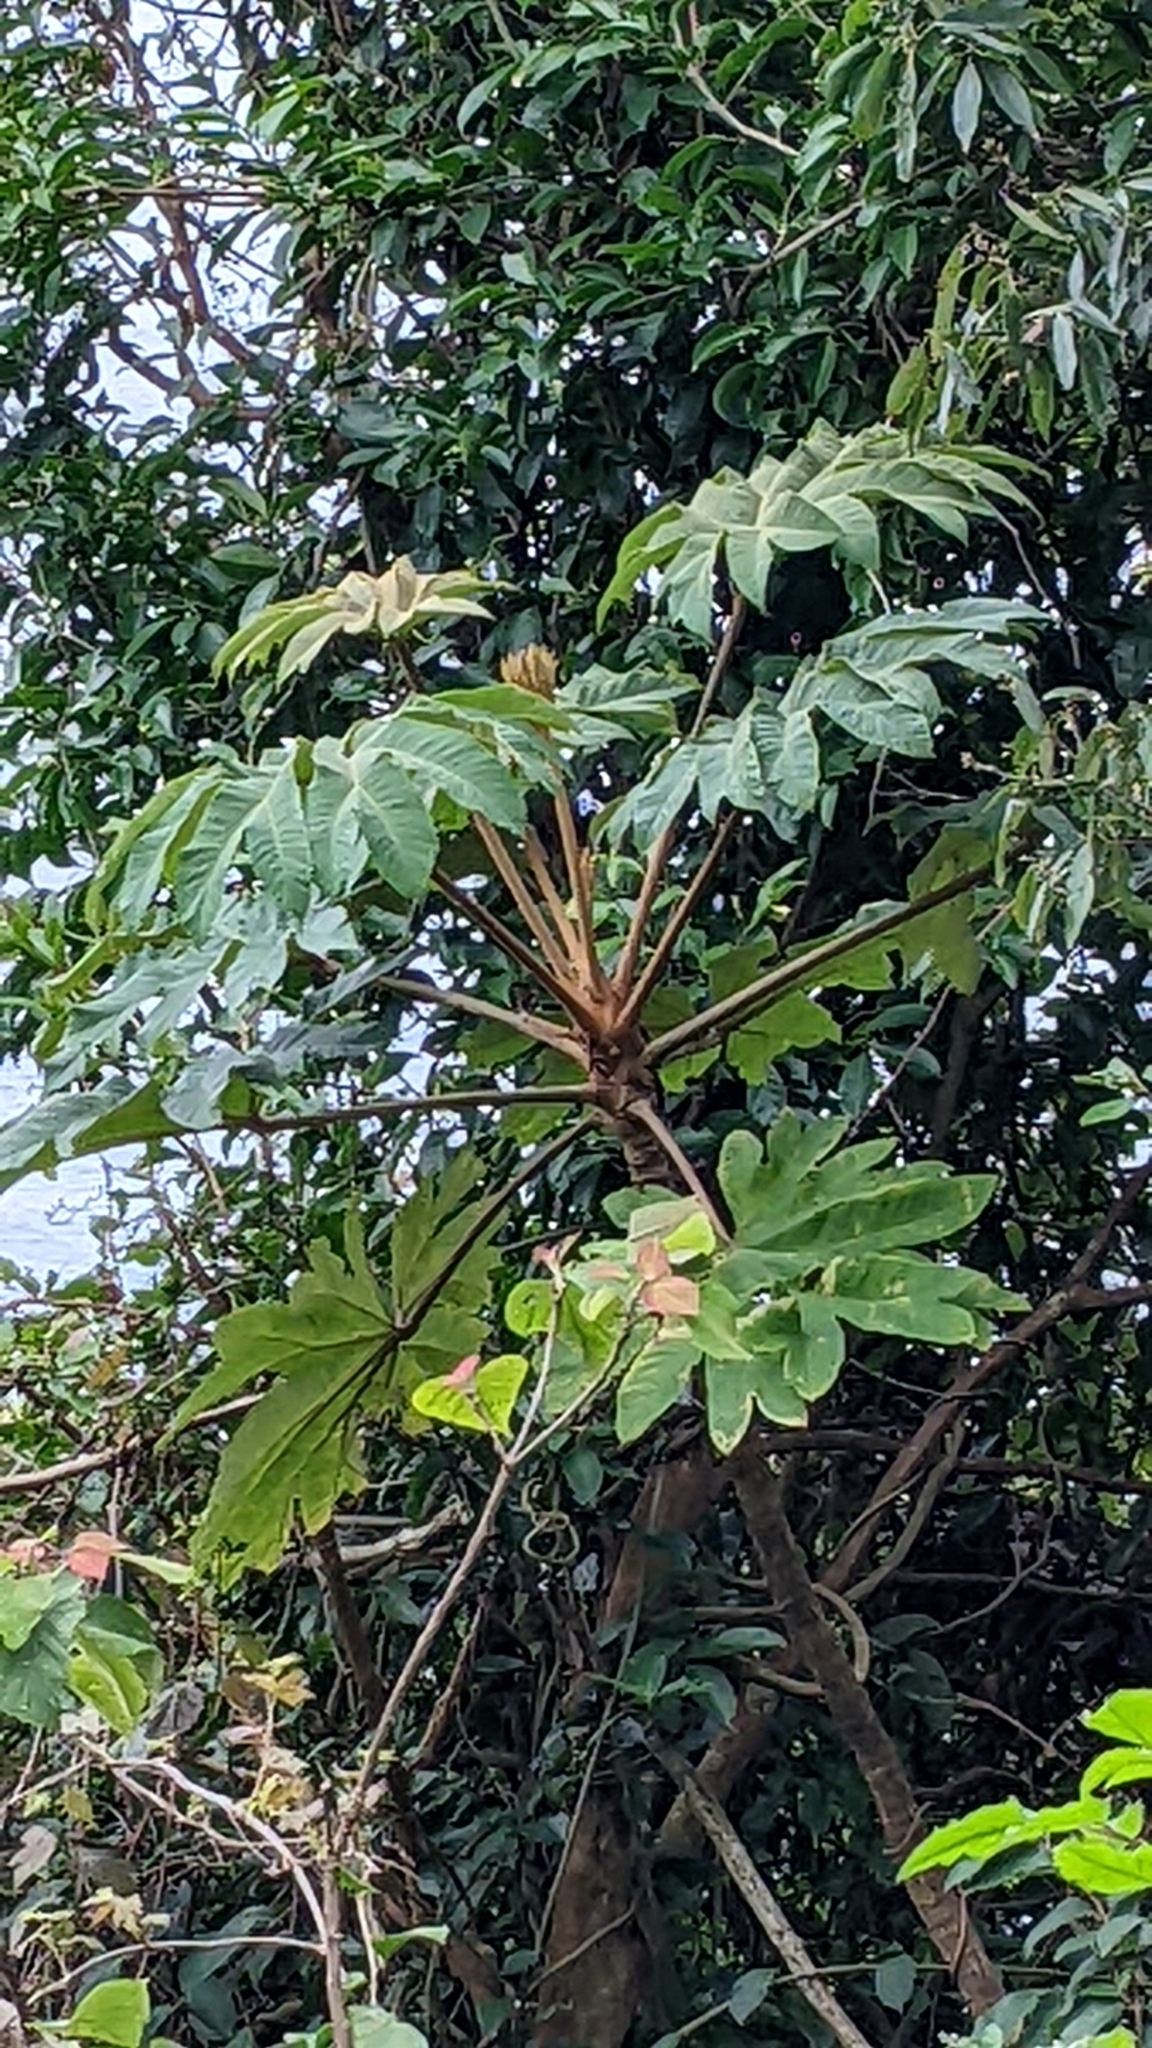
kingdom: Plantae
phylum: Tracheophyta
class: Magnoliopsida
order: Apiales
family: Araliaceae
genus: Tetrapanax
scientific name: Tetrapanax papyrifer
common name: Rice-paper plant
